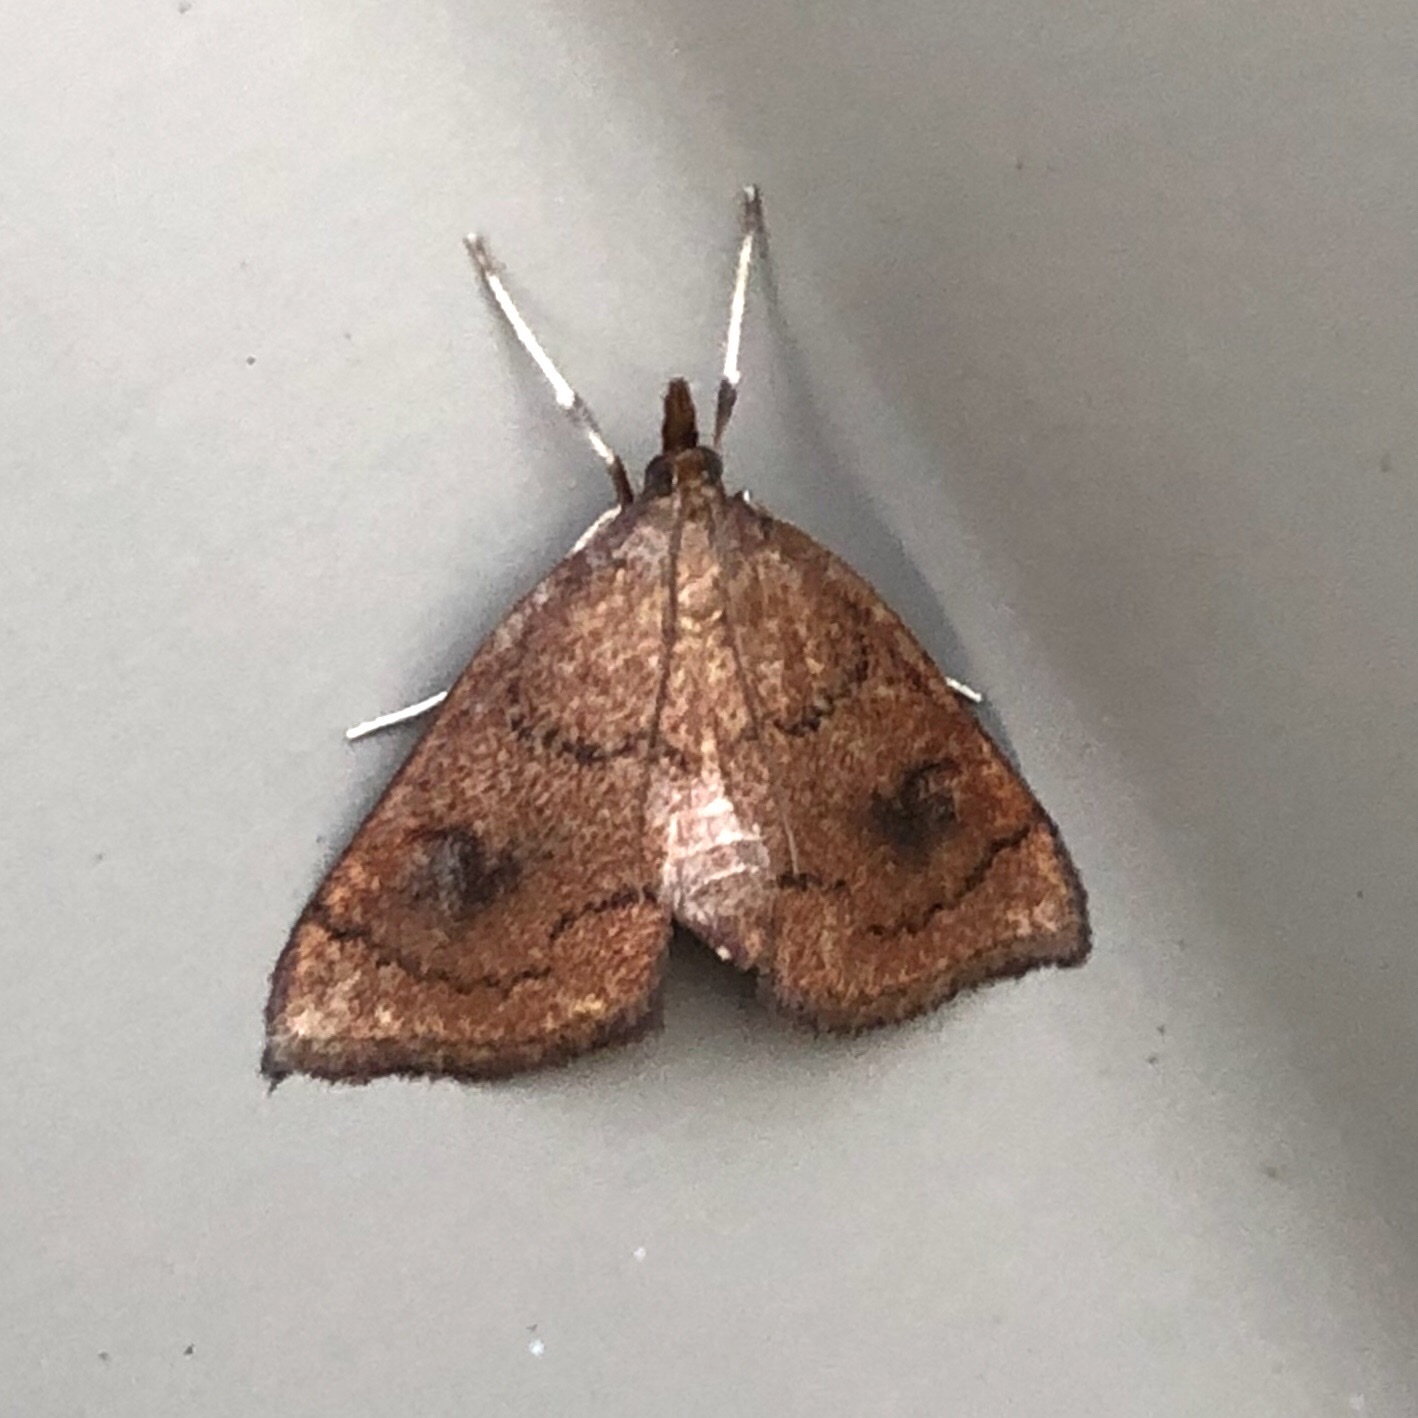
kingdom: Animalia
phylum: Arthropoda
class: Insecta
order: Lepidoptera
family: Crambidae
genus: Fumibotys
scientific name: Fumibotys fumalis
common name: Mint root borer moth
